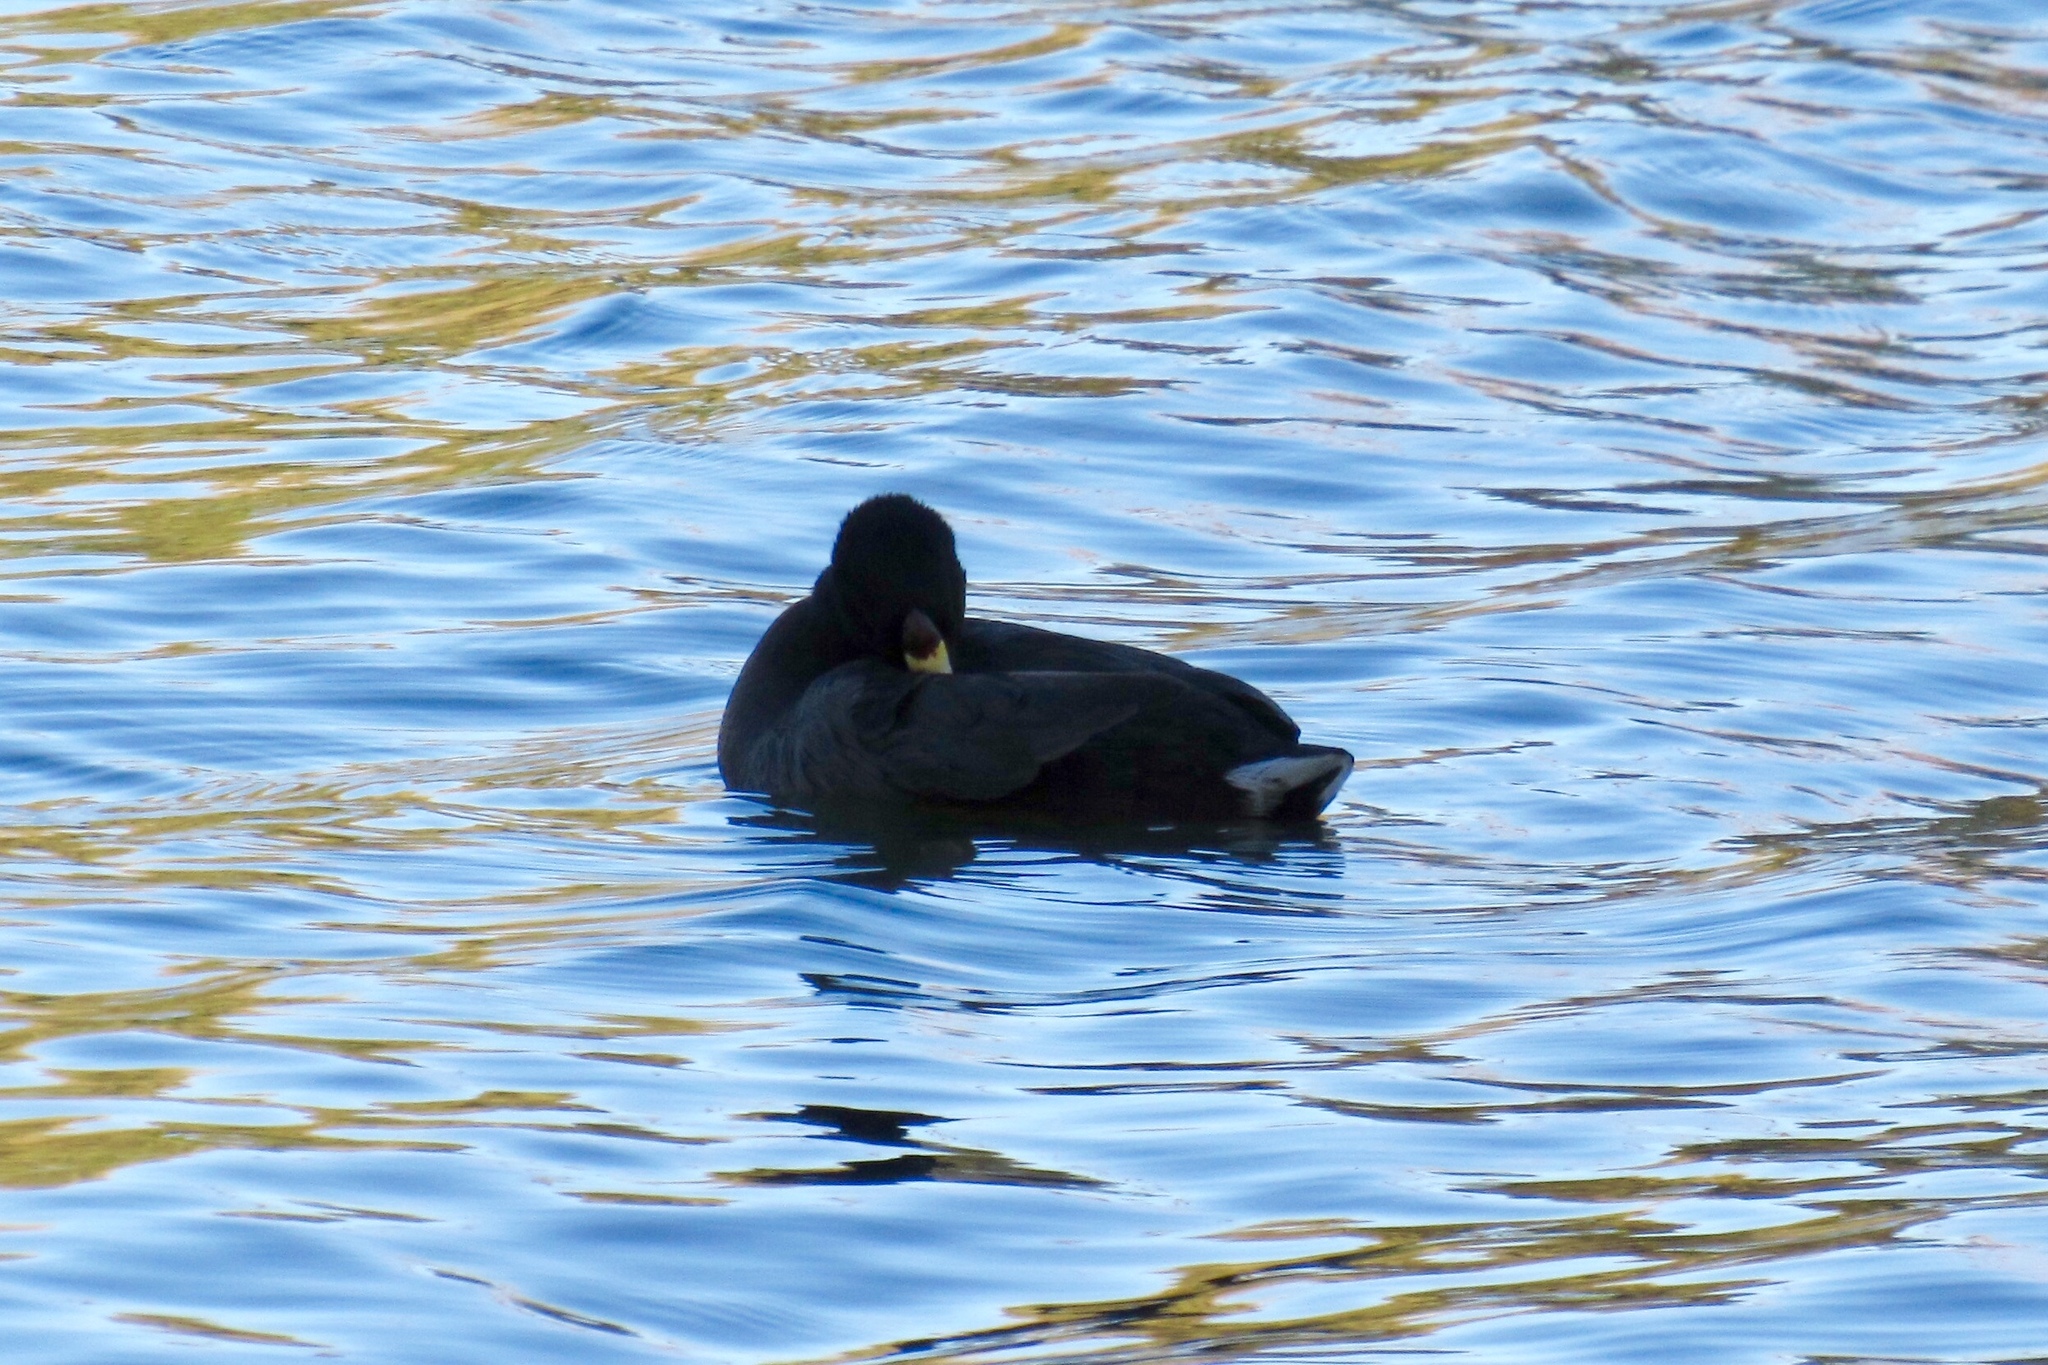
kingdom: Animalia
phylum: Chordata
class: Aves
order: Gruiformes
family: Rallidae
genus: Fulica
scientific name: Fulica americana
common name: American coot
